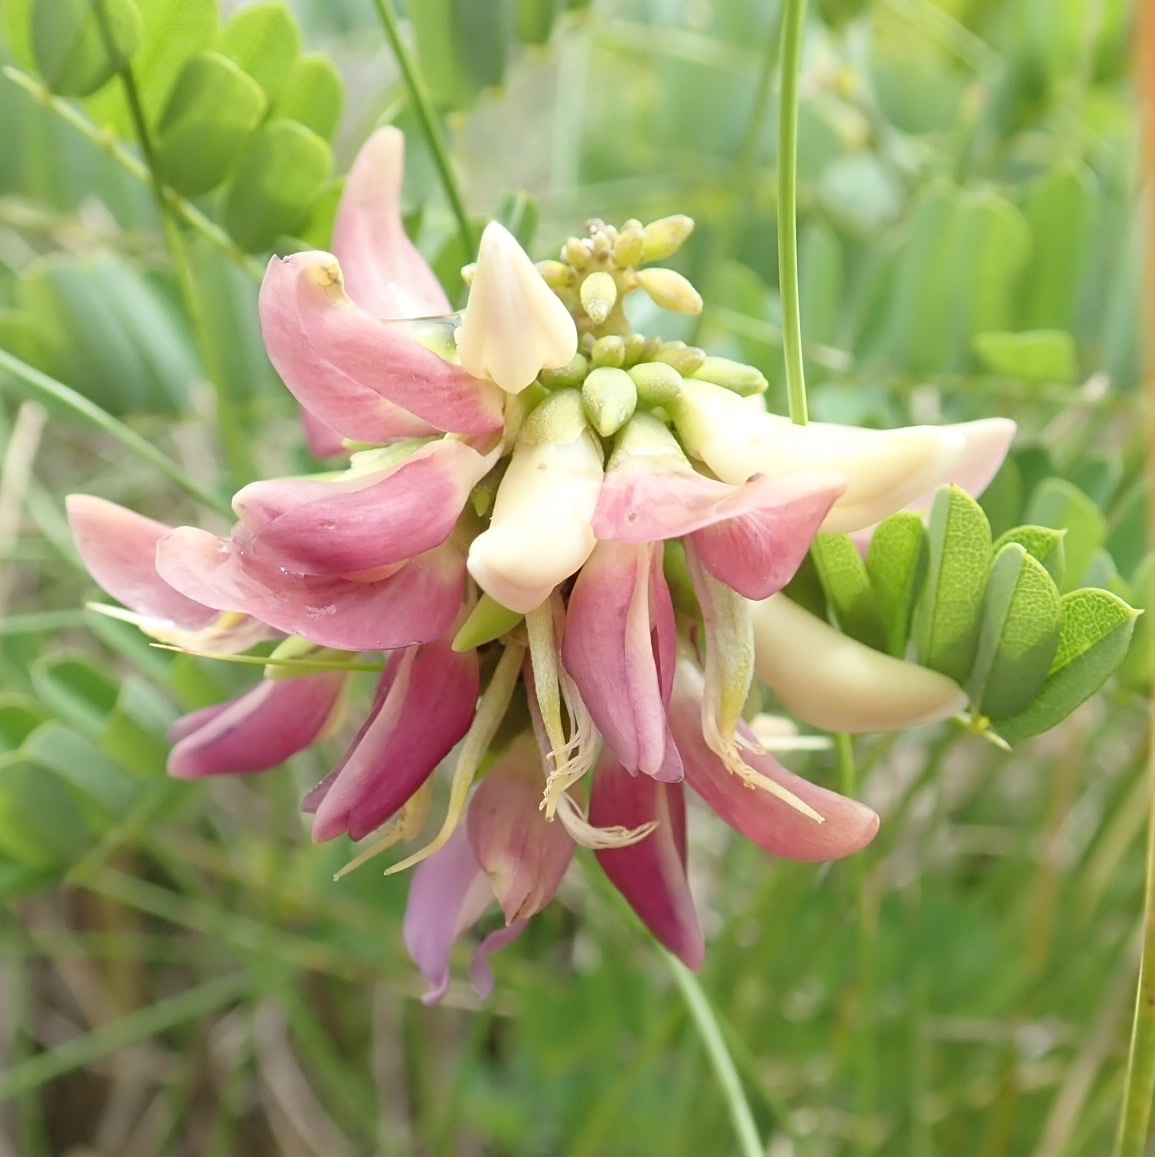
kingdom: Plantae
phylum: Tracheophyta
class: Magnoliopsida
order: Fabales
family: Fabaceae
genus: Abrus
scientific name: Abrus precatorius
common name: Rosarypea
